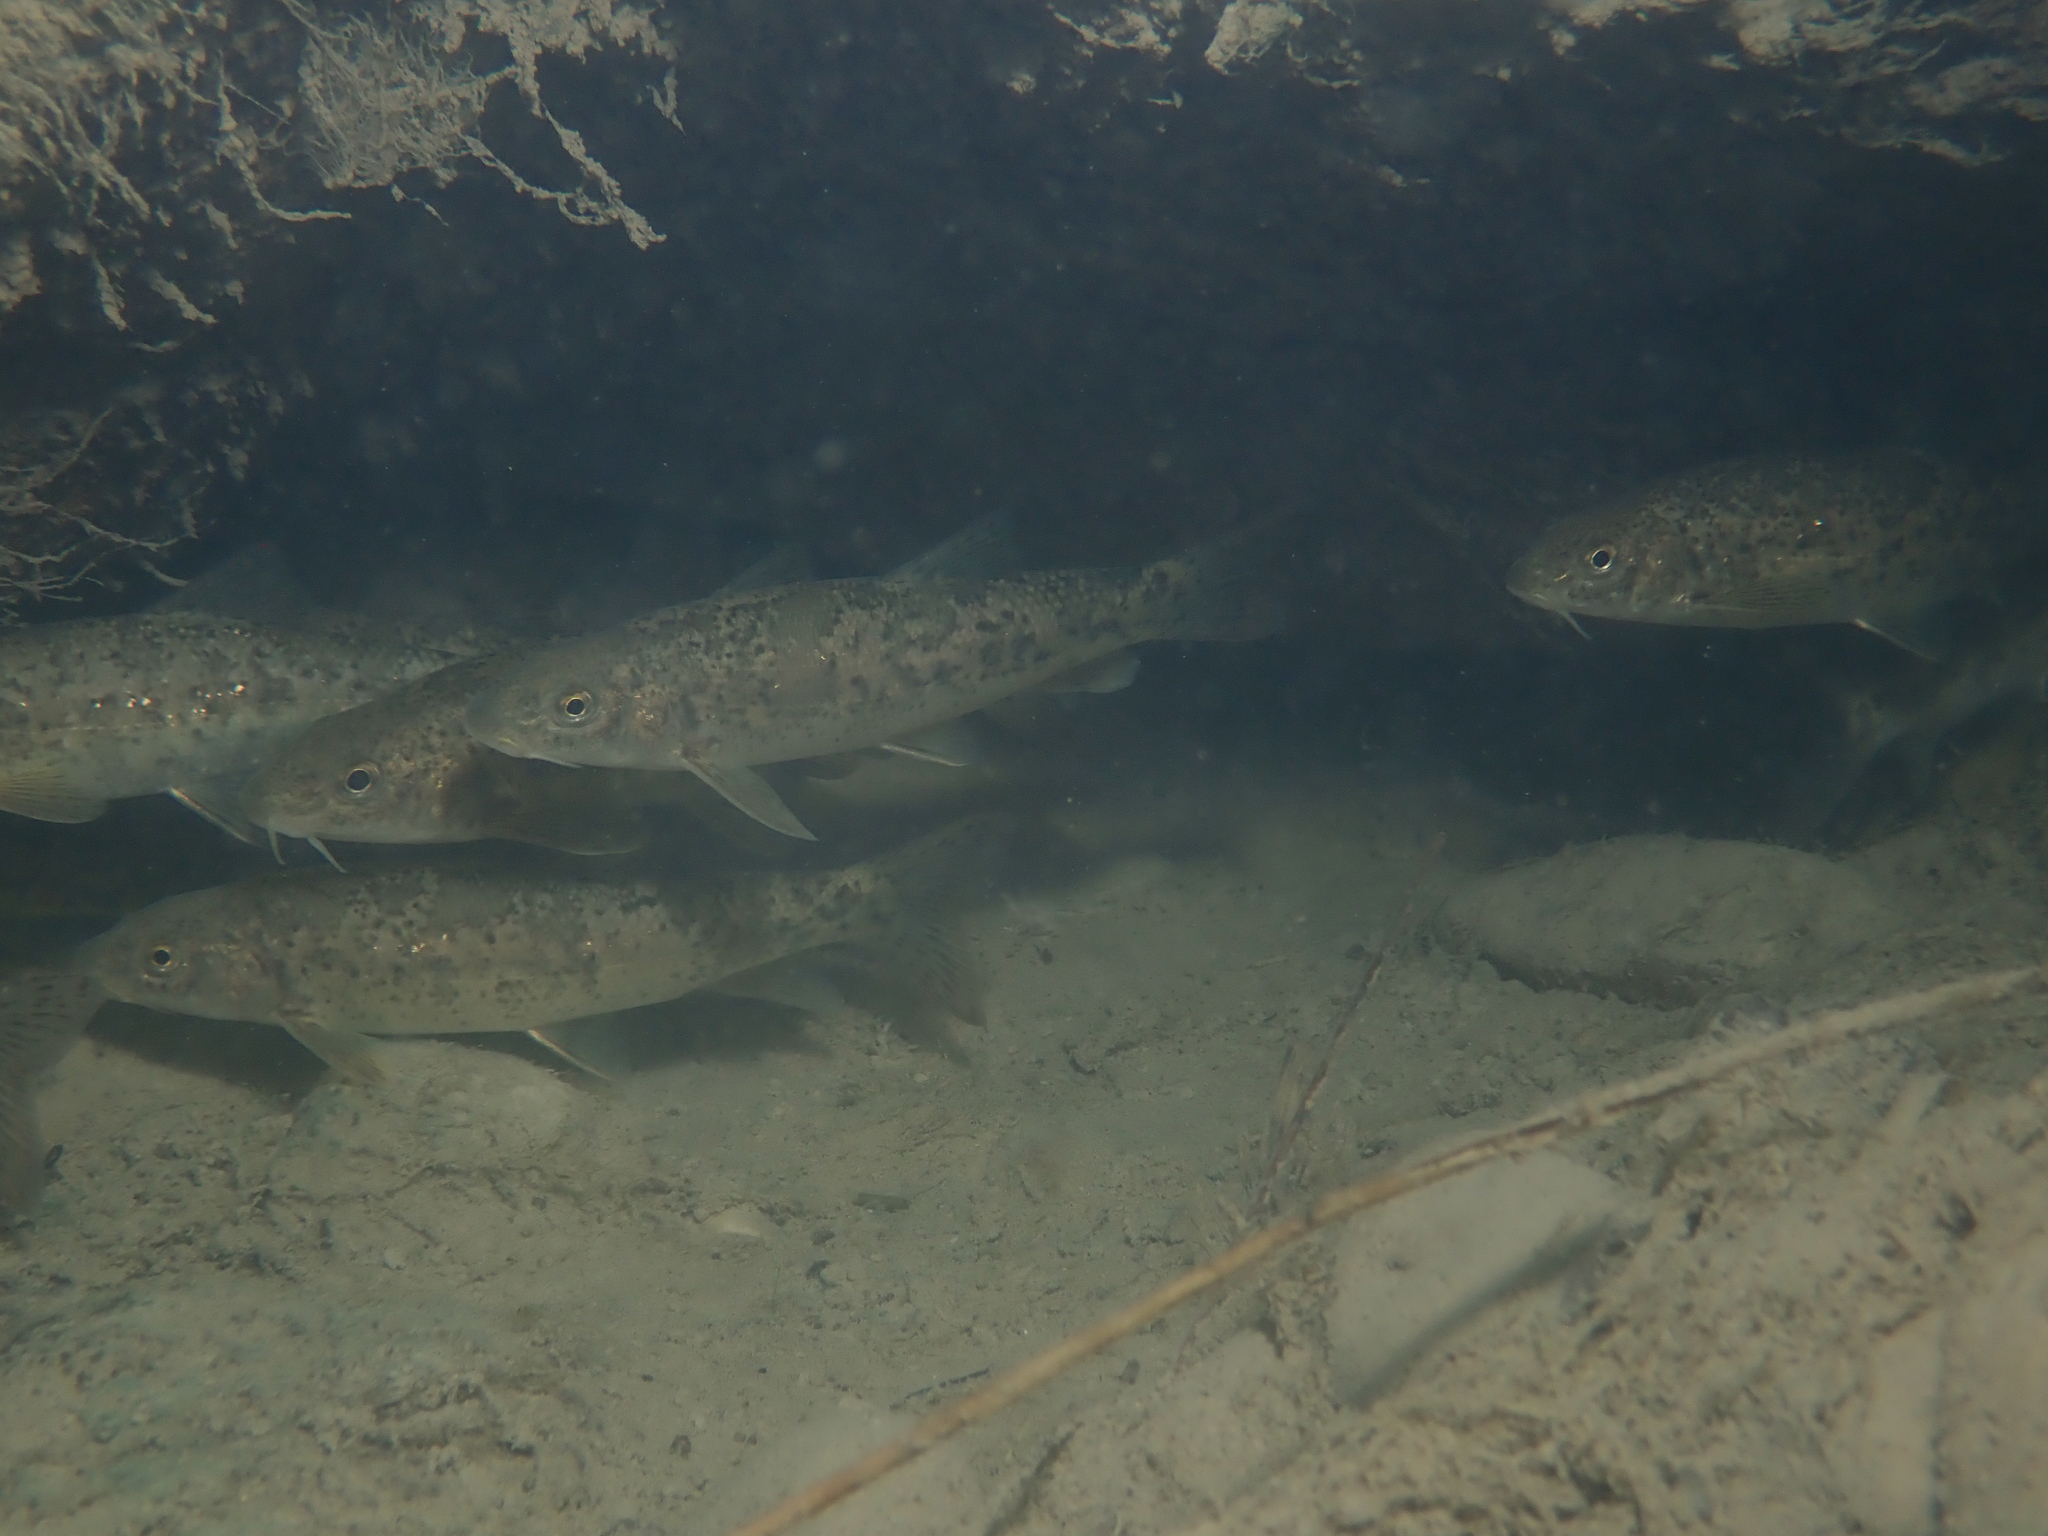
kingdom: Animalia
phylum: Chordata
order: Cypriniformes
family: Cyprinidae
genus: Barbus
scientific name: Barbus meridionalis
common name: Mediterranean barbel
